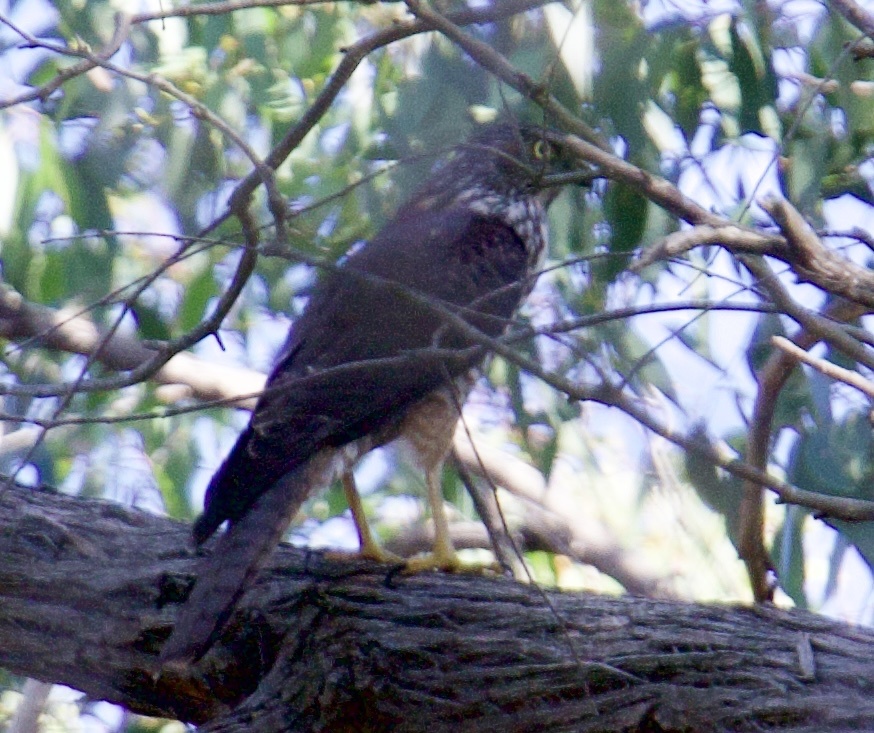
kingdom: Animalia
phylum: Chordata
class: Aves
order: Accipitriformes
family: Accipitridae
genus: Accipiter
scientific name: Accipiter fasciatus
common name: Brown goshawk
